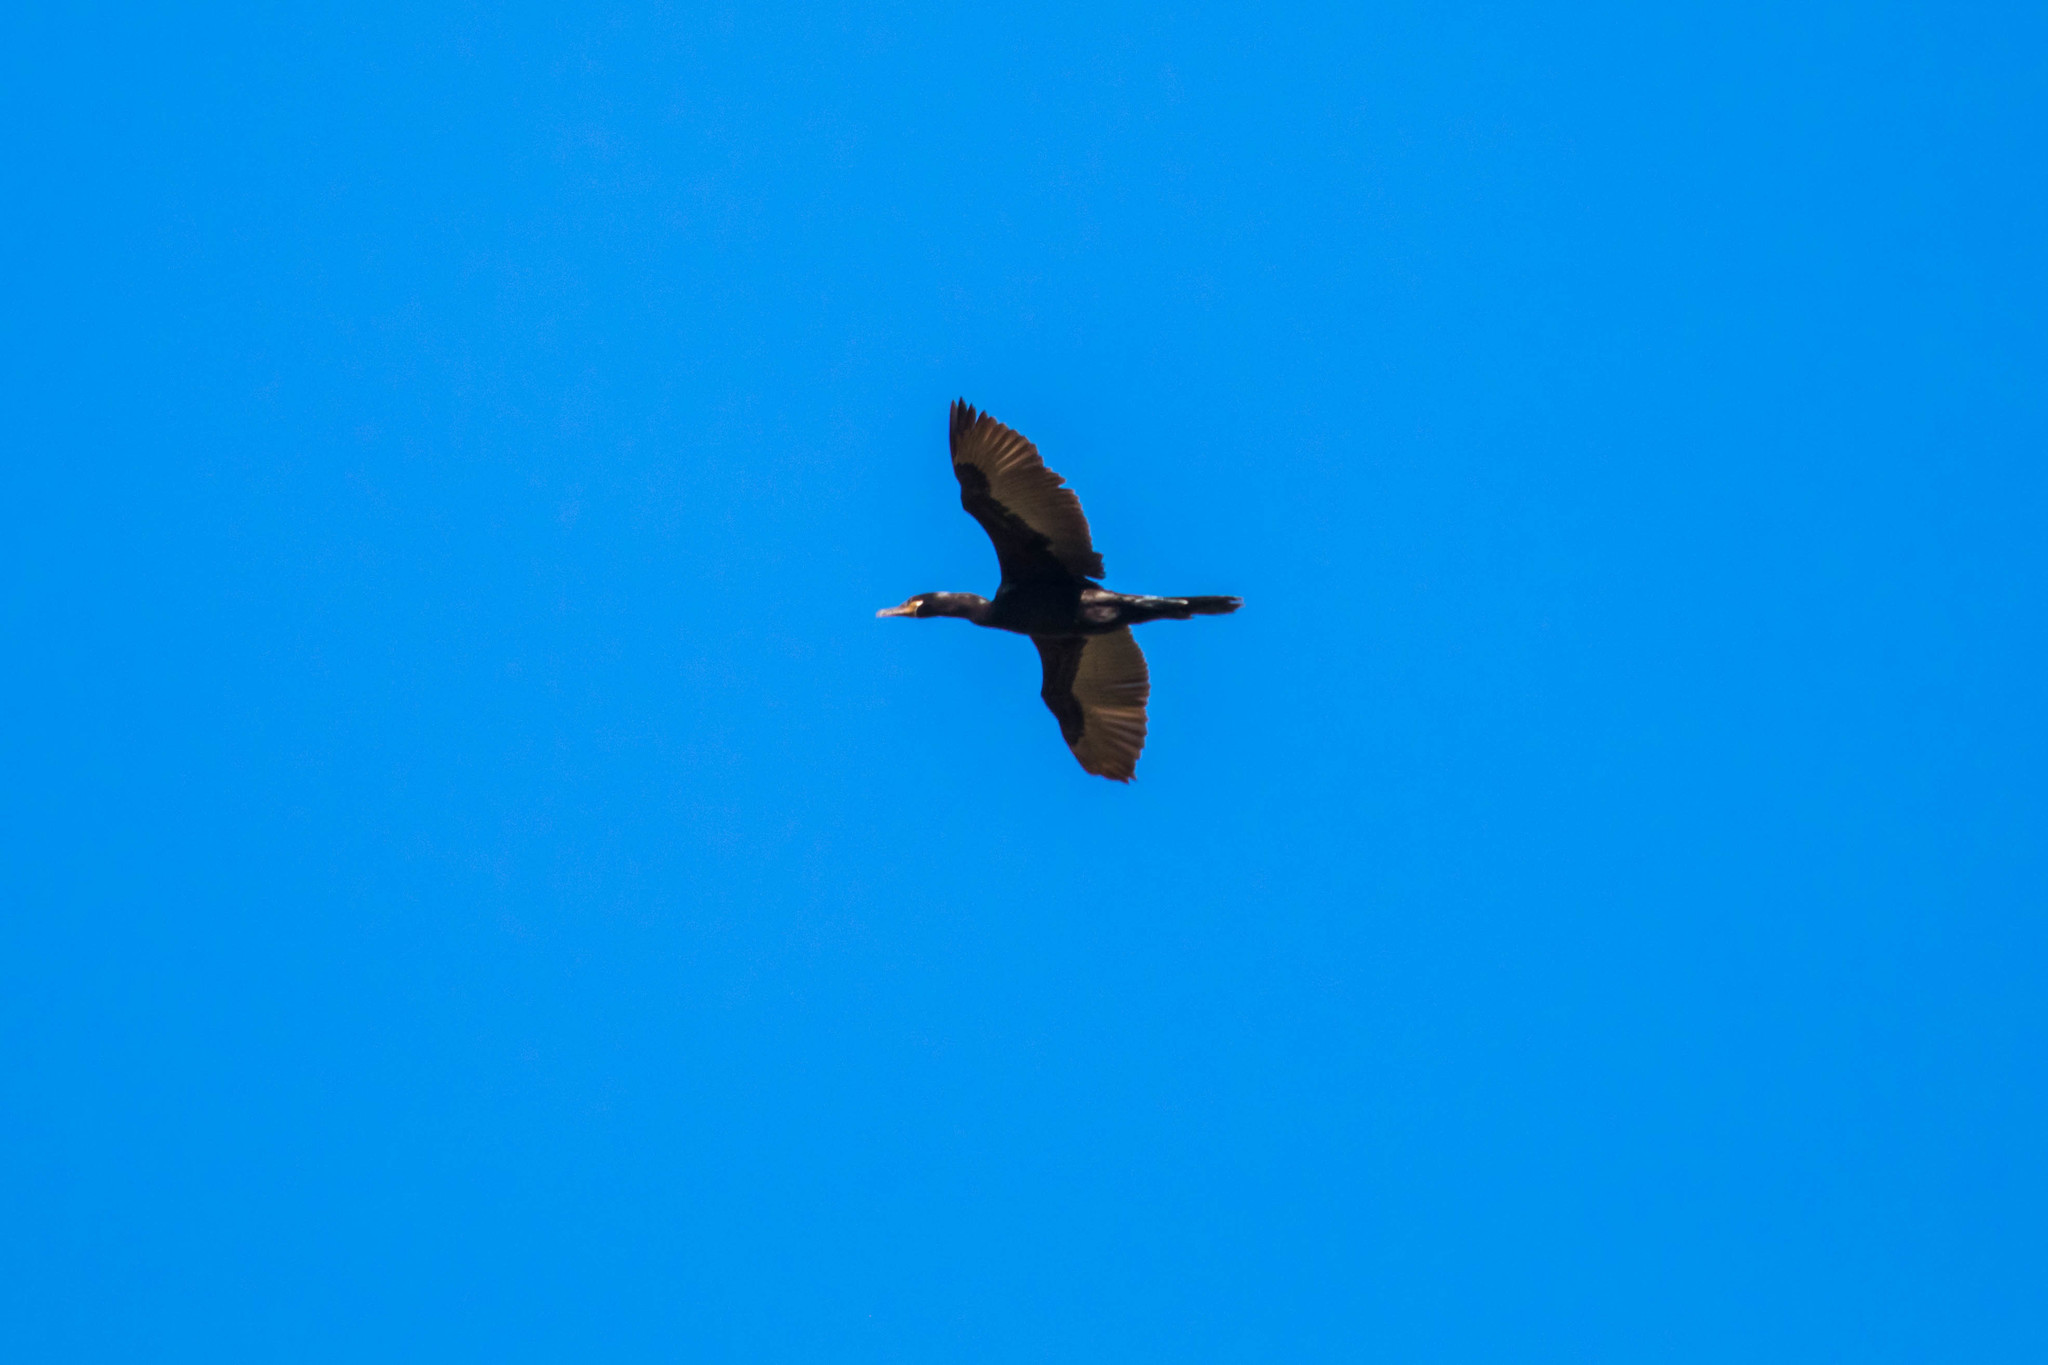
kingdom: Animalia
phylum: Chordata
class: Aves
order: Suliformes
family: Phalacrocoracidae
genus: Phalacrocorax
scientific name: Phalacrocorax brasilianus
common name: Neotropic cormorant
